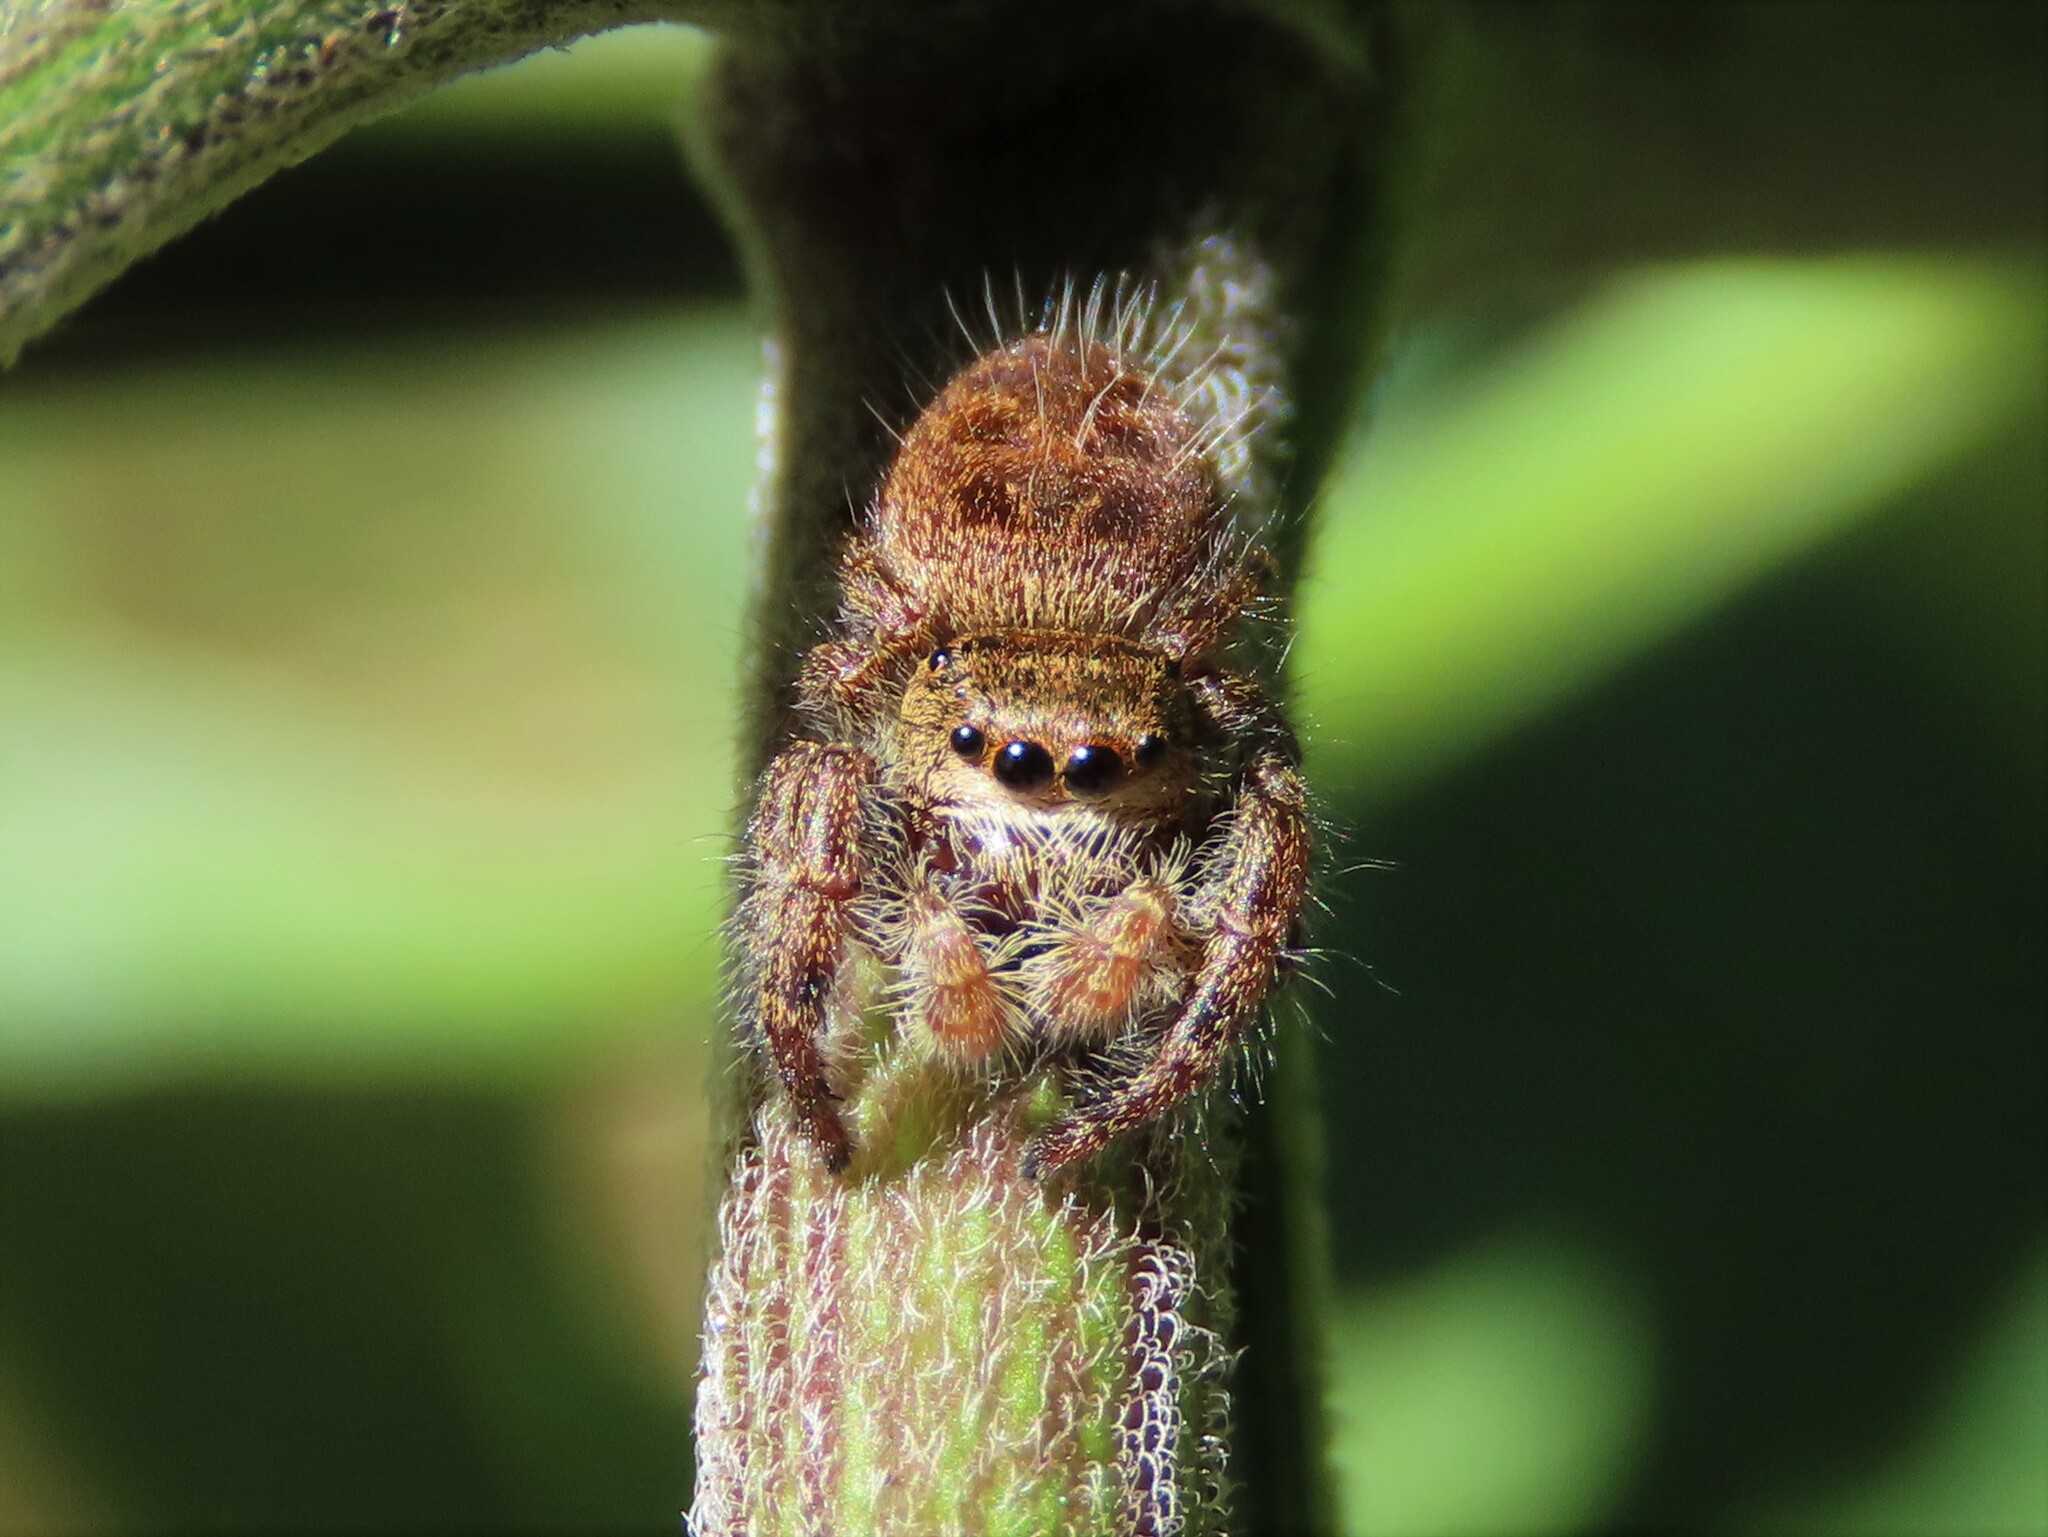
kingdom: Animalia
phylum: Arthropoda
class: Arachnida
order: Araneae
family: Salticidae
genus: Phidippus
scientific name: Phidippus princeps
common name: Grayish jumping spider
